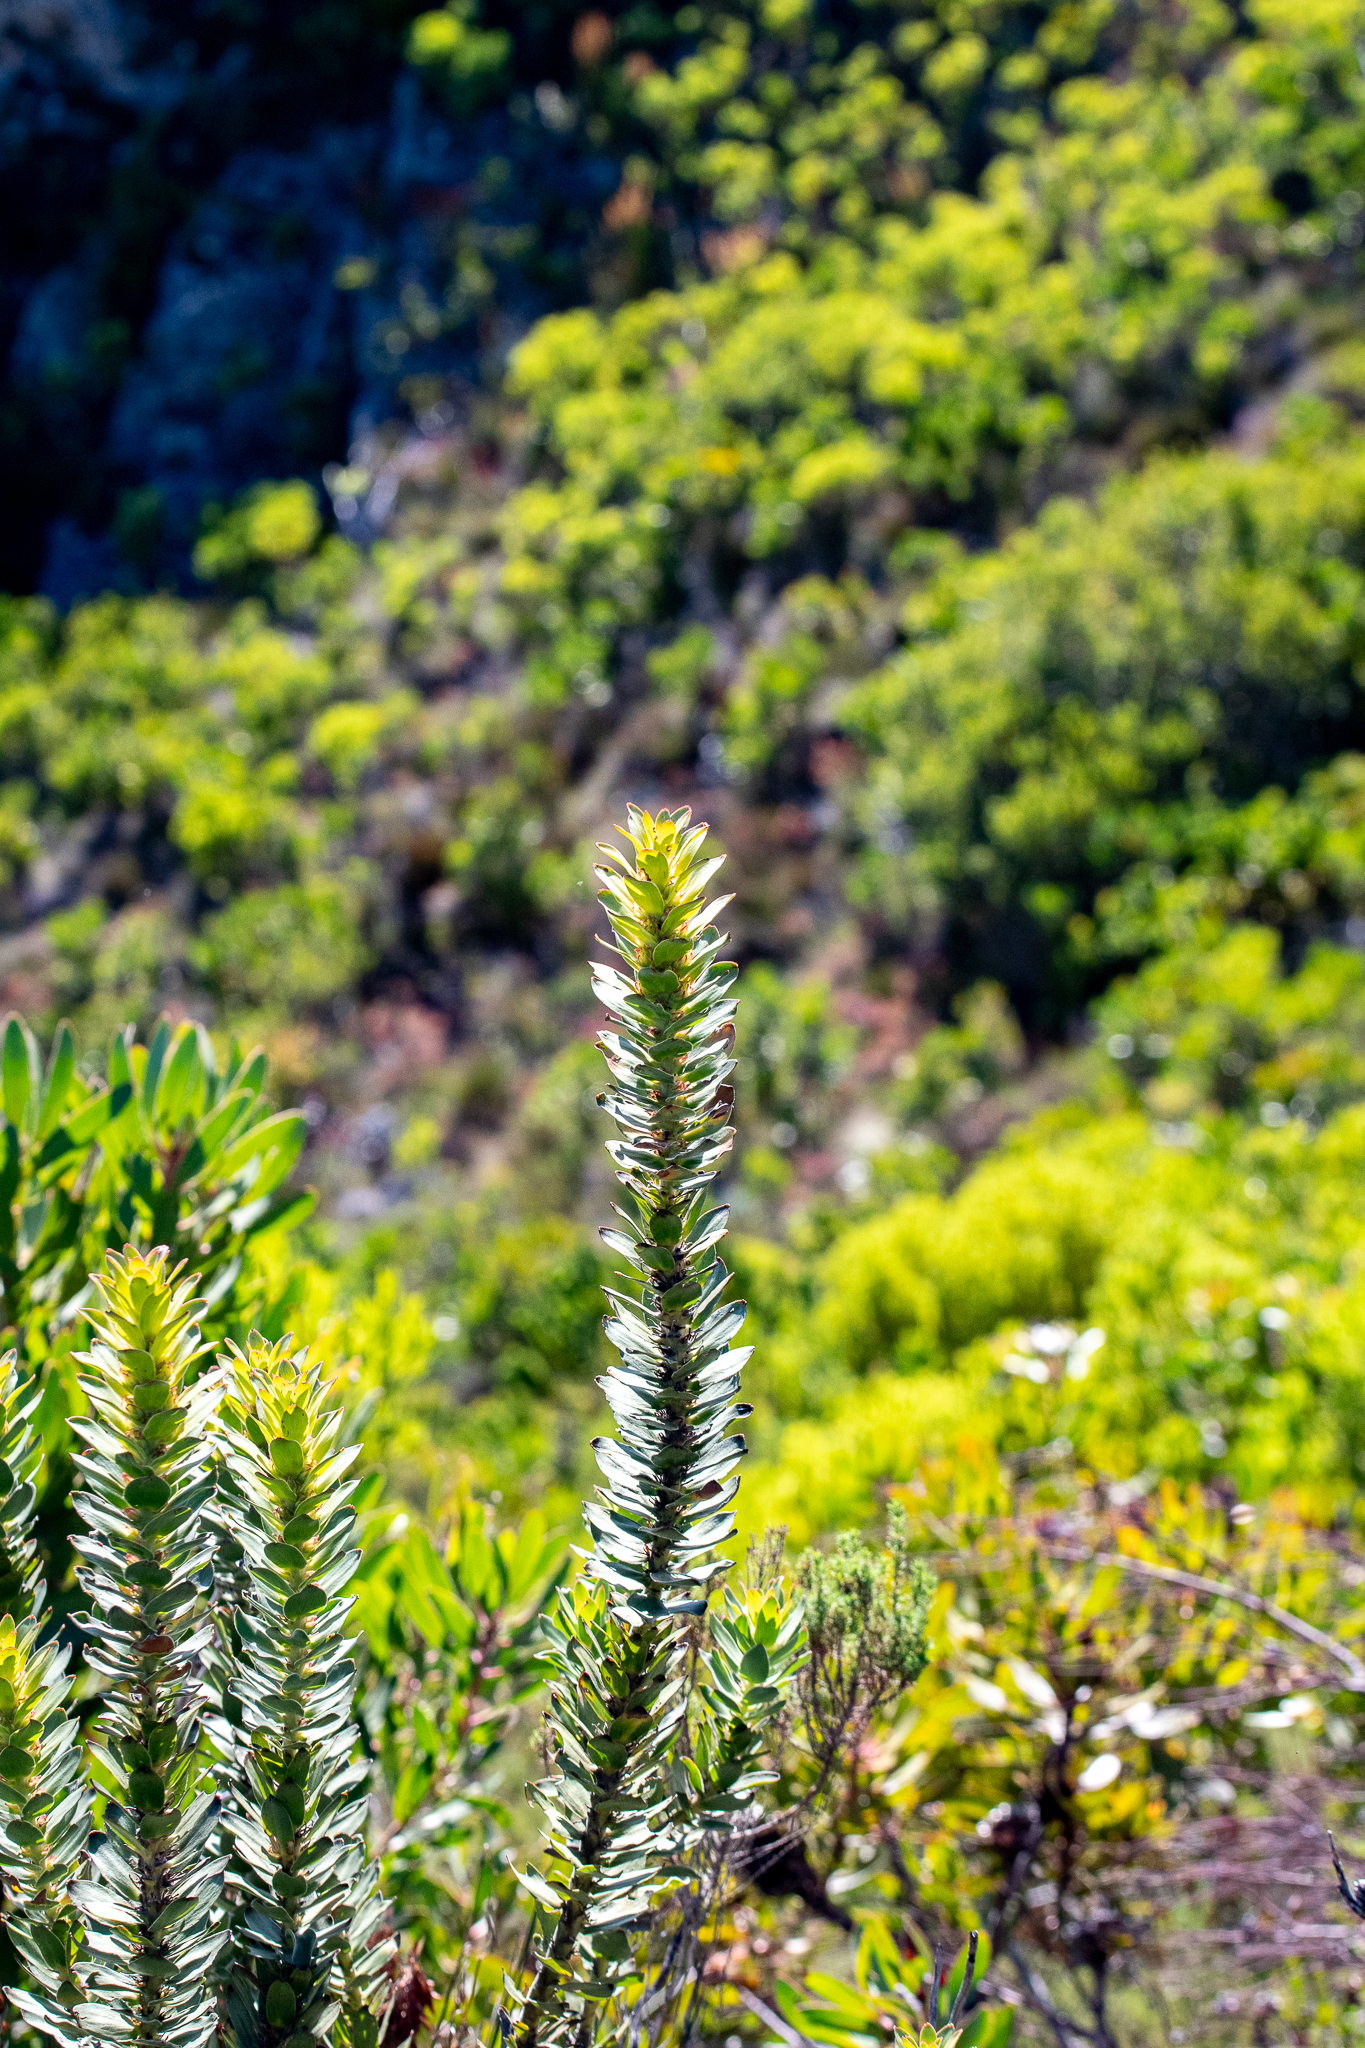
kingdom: Plantae
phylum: Tracheophyta
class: Magnoliopsida
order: Proteales
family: Proteaceae
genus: Mimetes
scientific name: Mimetes saxatilis
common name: Limestone pagoda
